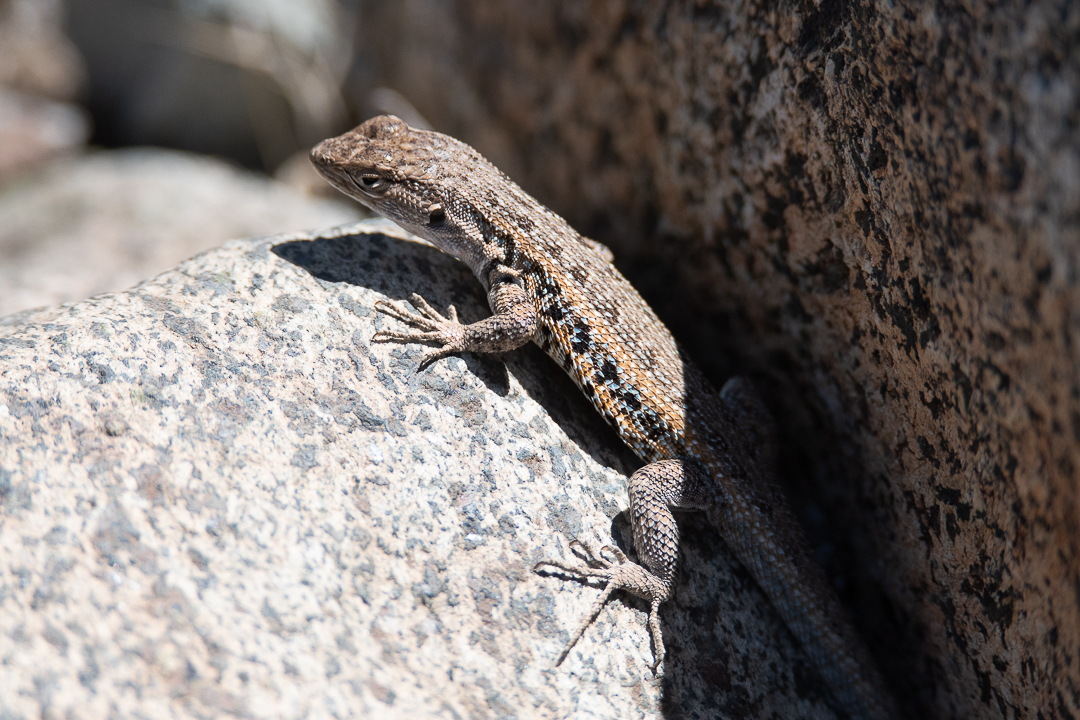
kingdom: Animalia
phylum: Chordata
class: Squamata
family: Liolaemidae
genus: Liolaemus
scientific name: Liolaemus platei
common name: Braided tree iguana
